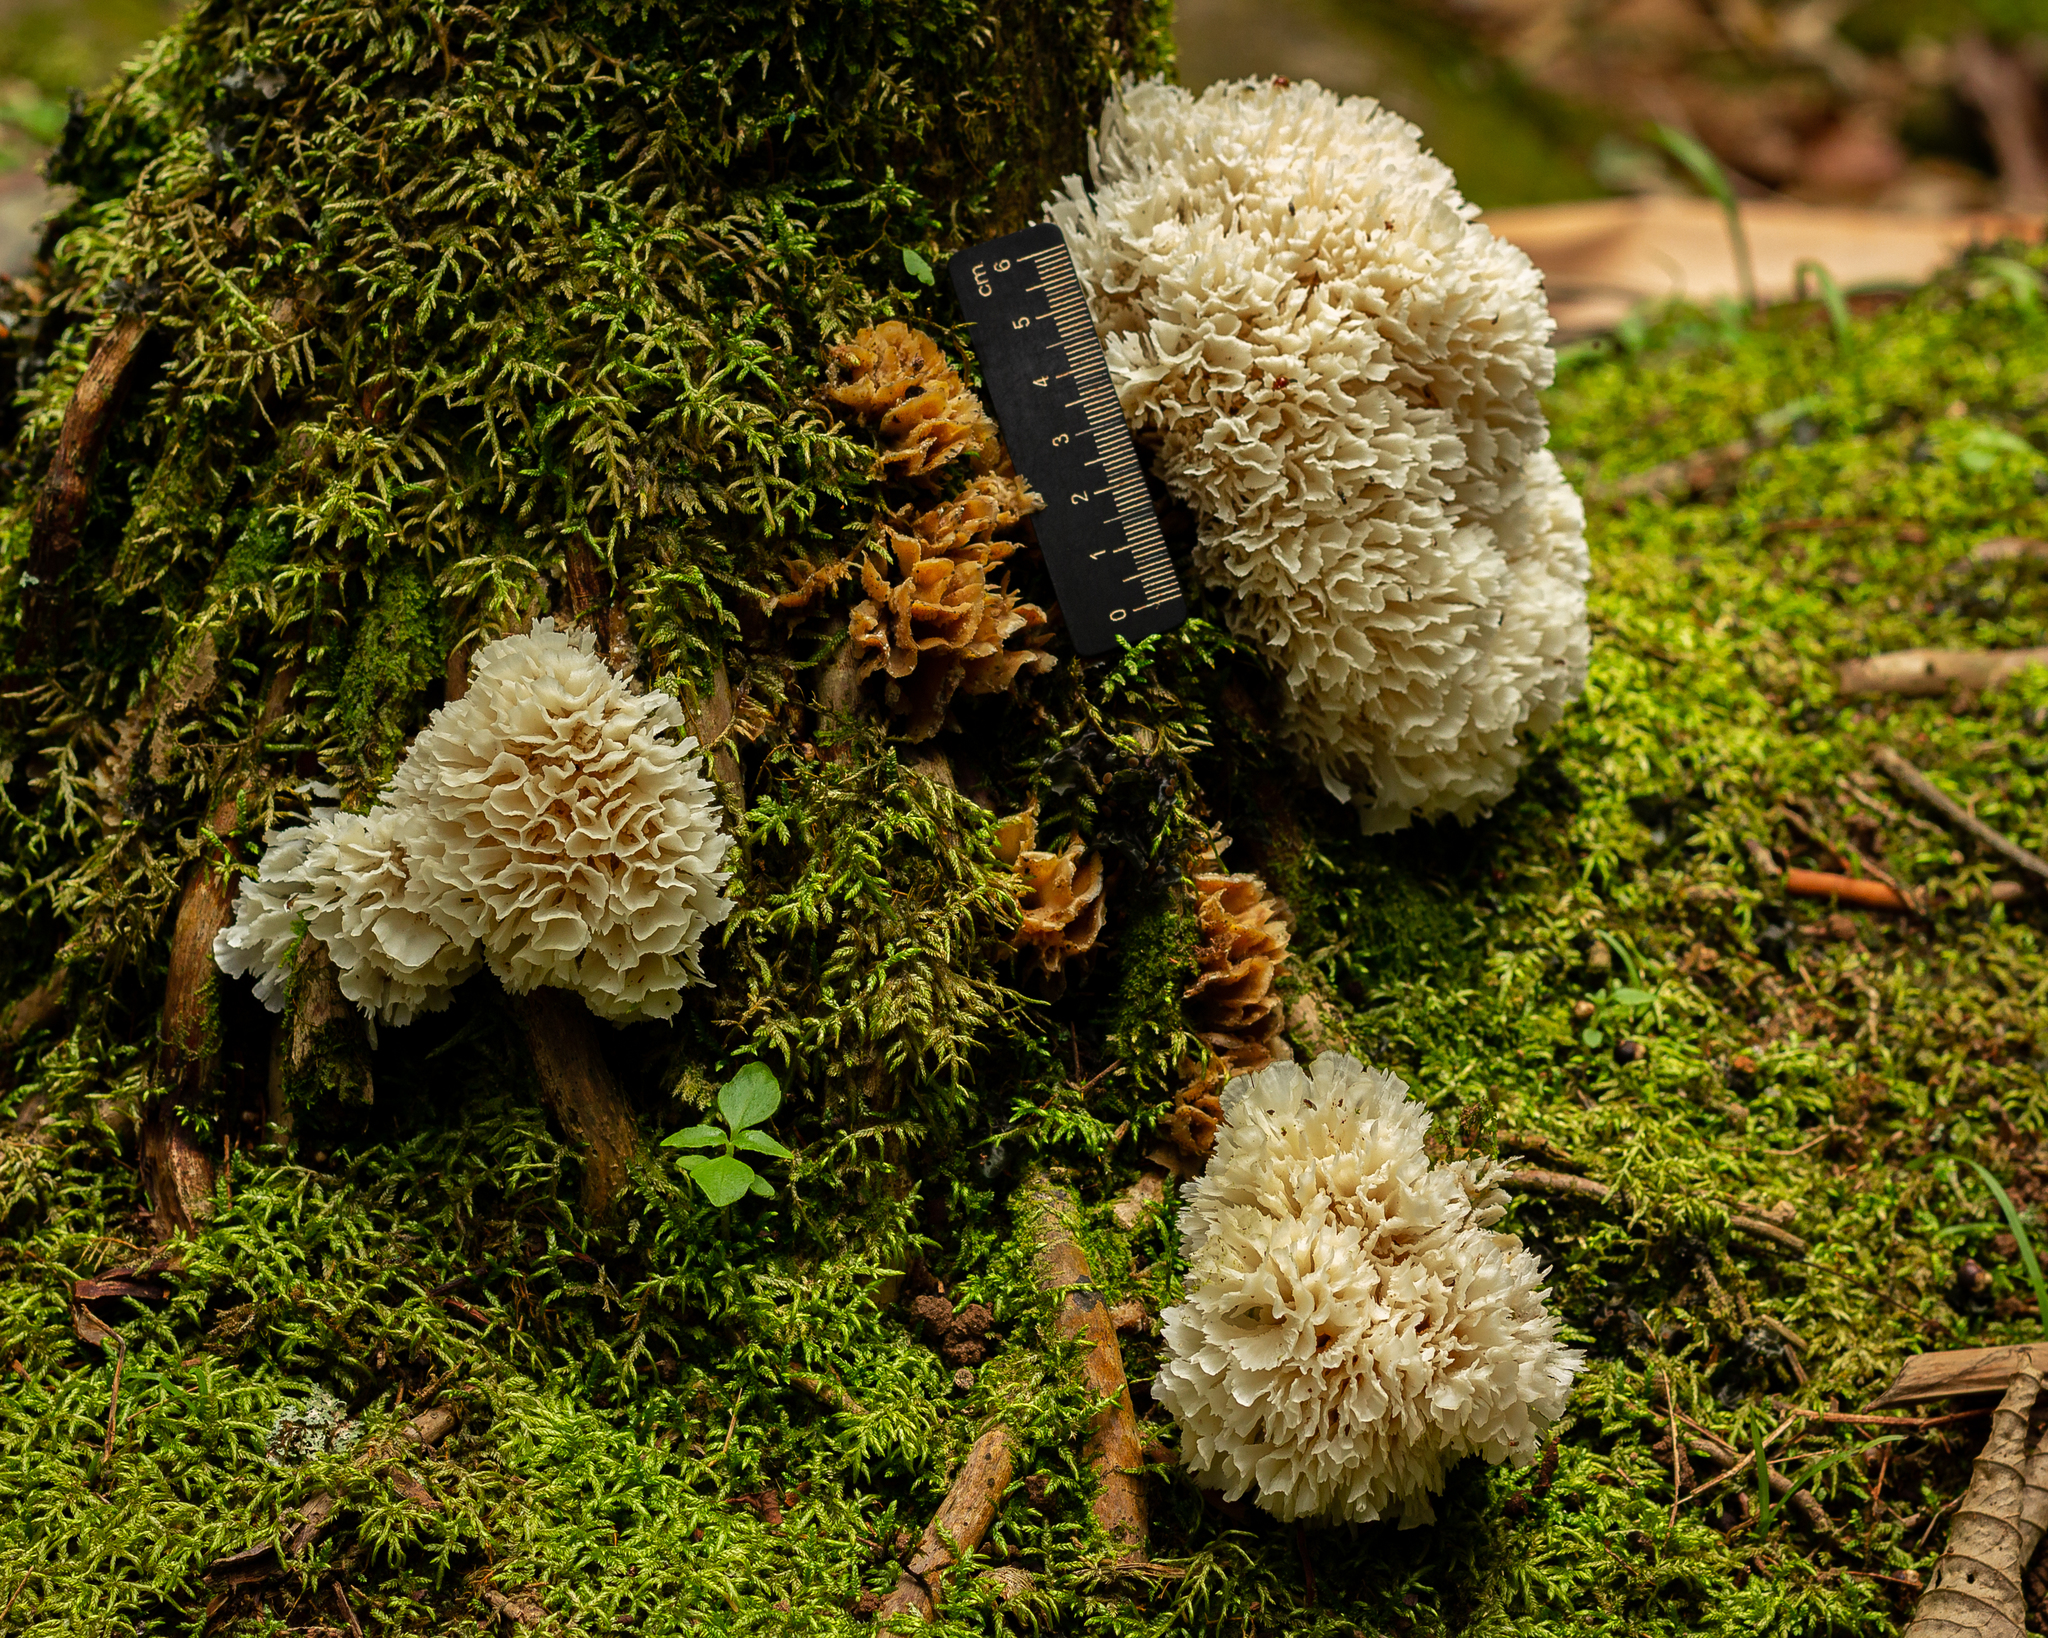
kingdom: Fungi
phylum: Basidiomycota
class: Agaricomycetes
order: Polyporales
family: Irpicaceae
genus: Irpex
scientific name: Irpex rosettiformis
